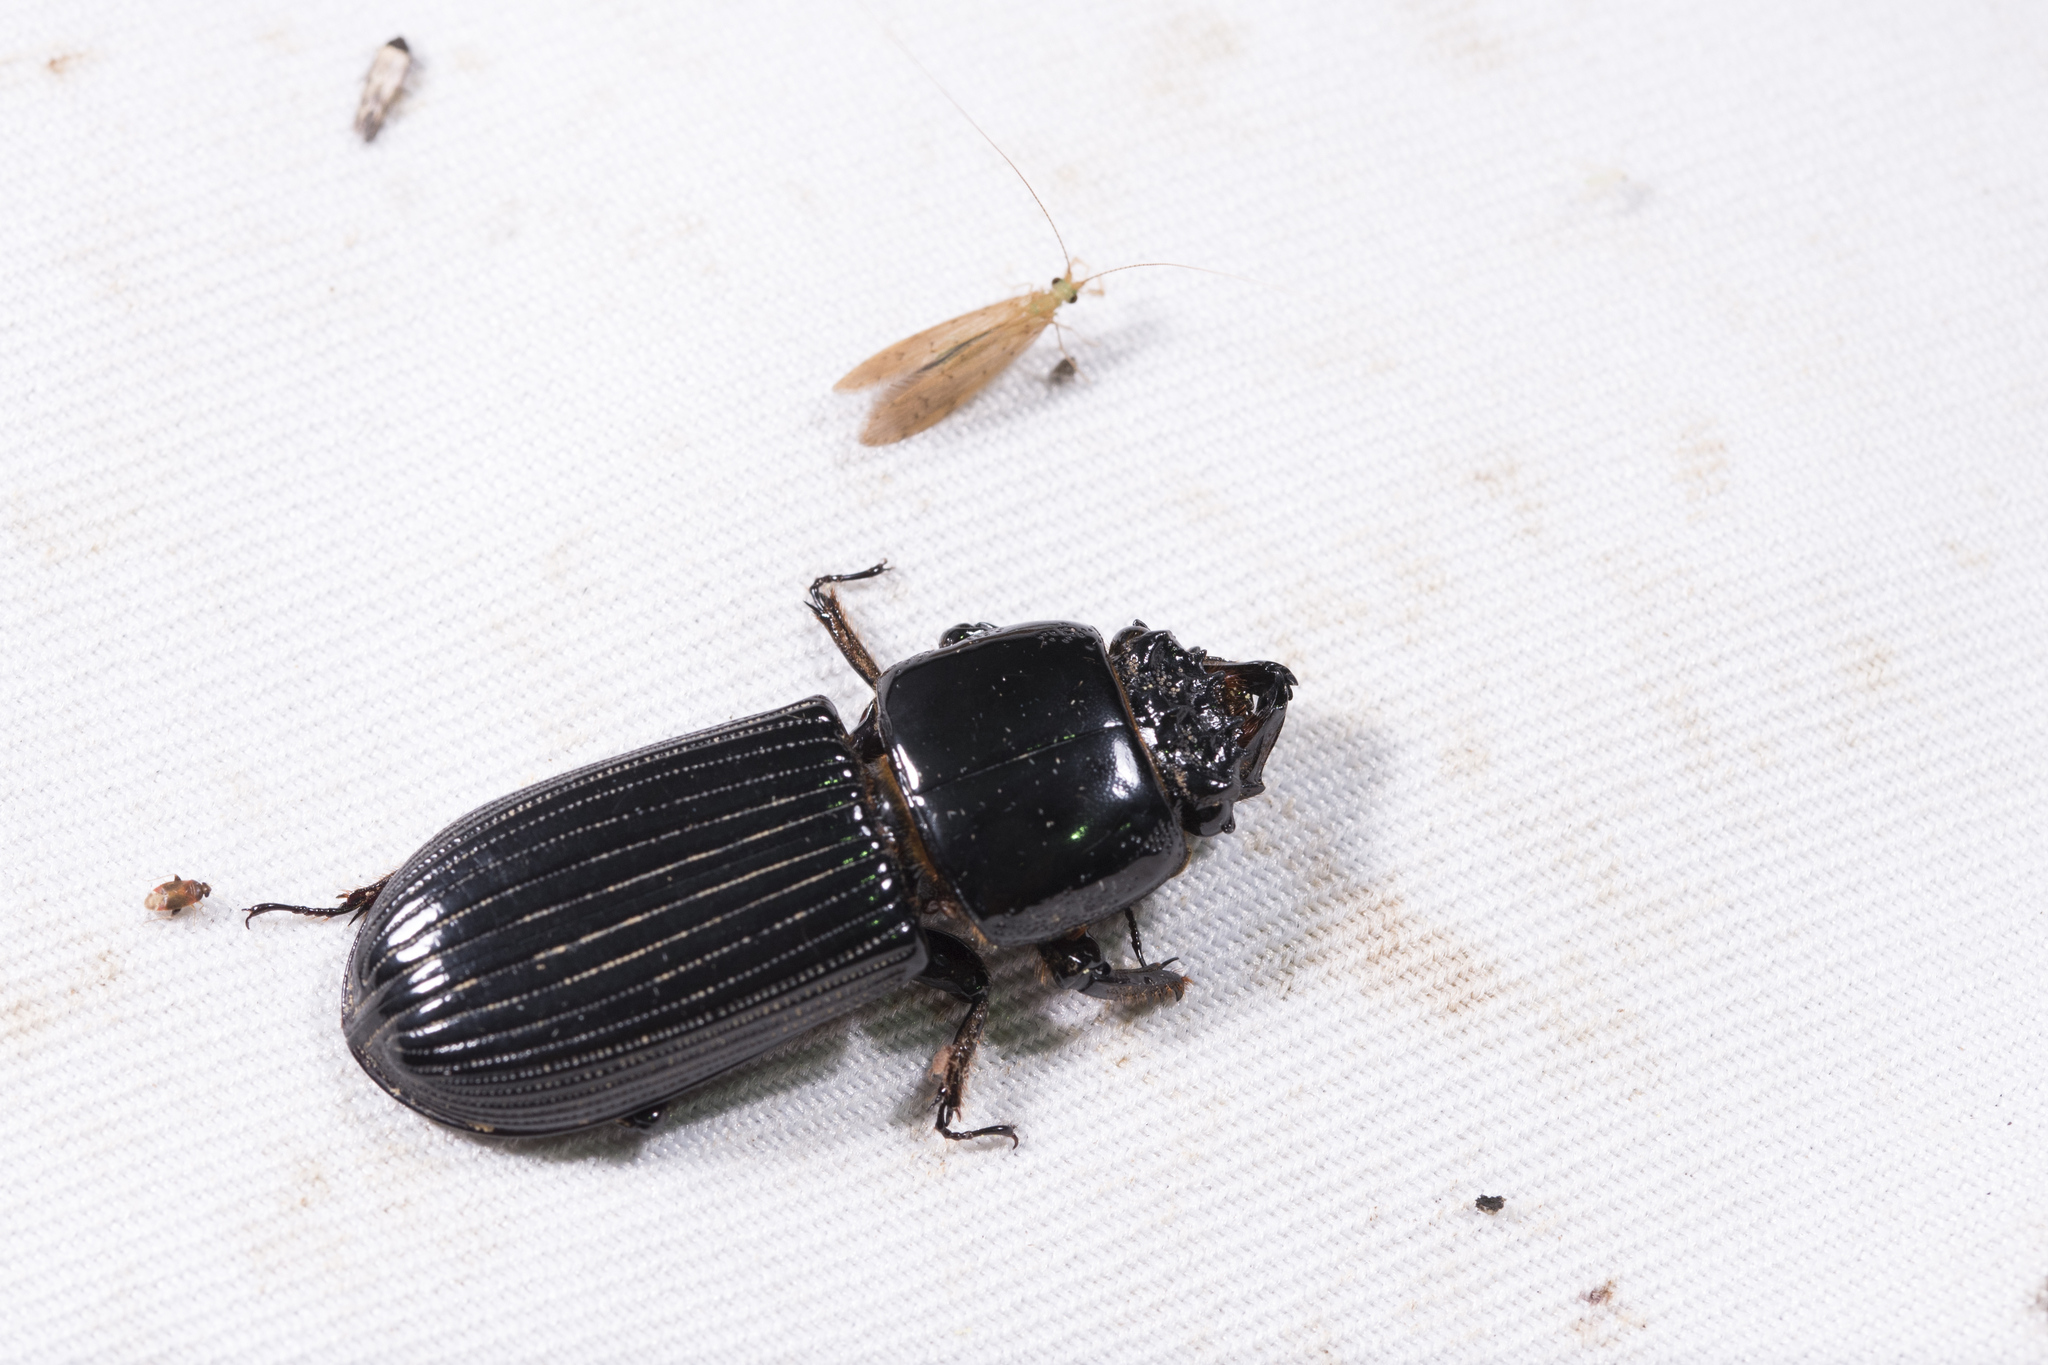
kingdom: Animalia
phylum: Arthropoda
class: Insecta
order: Coleoptera
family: Passalidae
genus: Leptaulax
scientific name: Leptaulax dentatus
